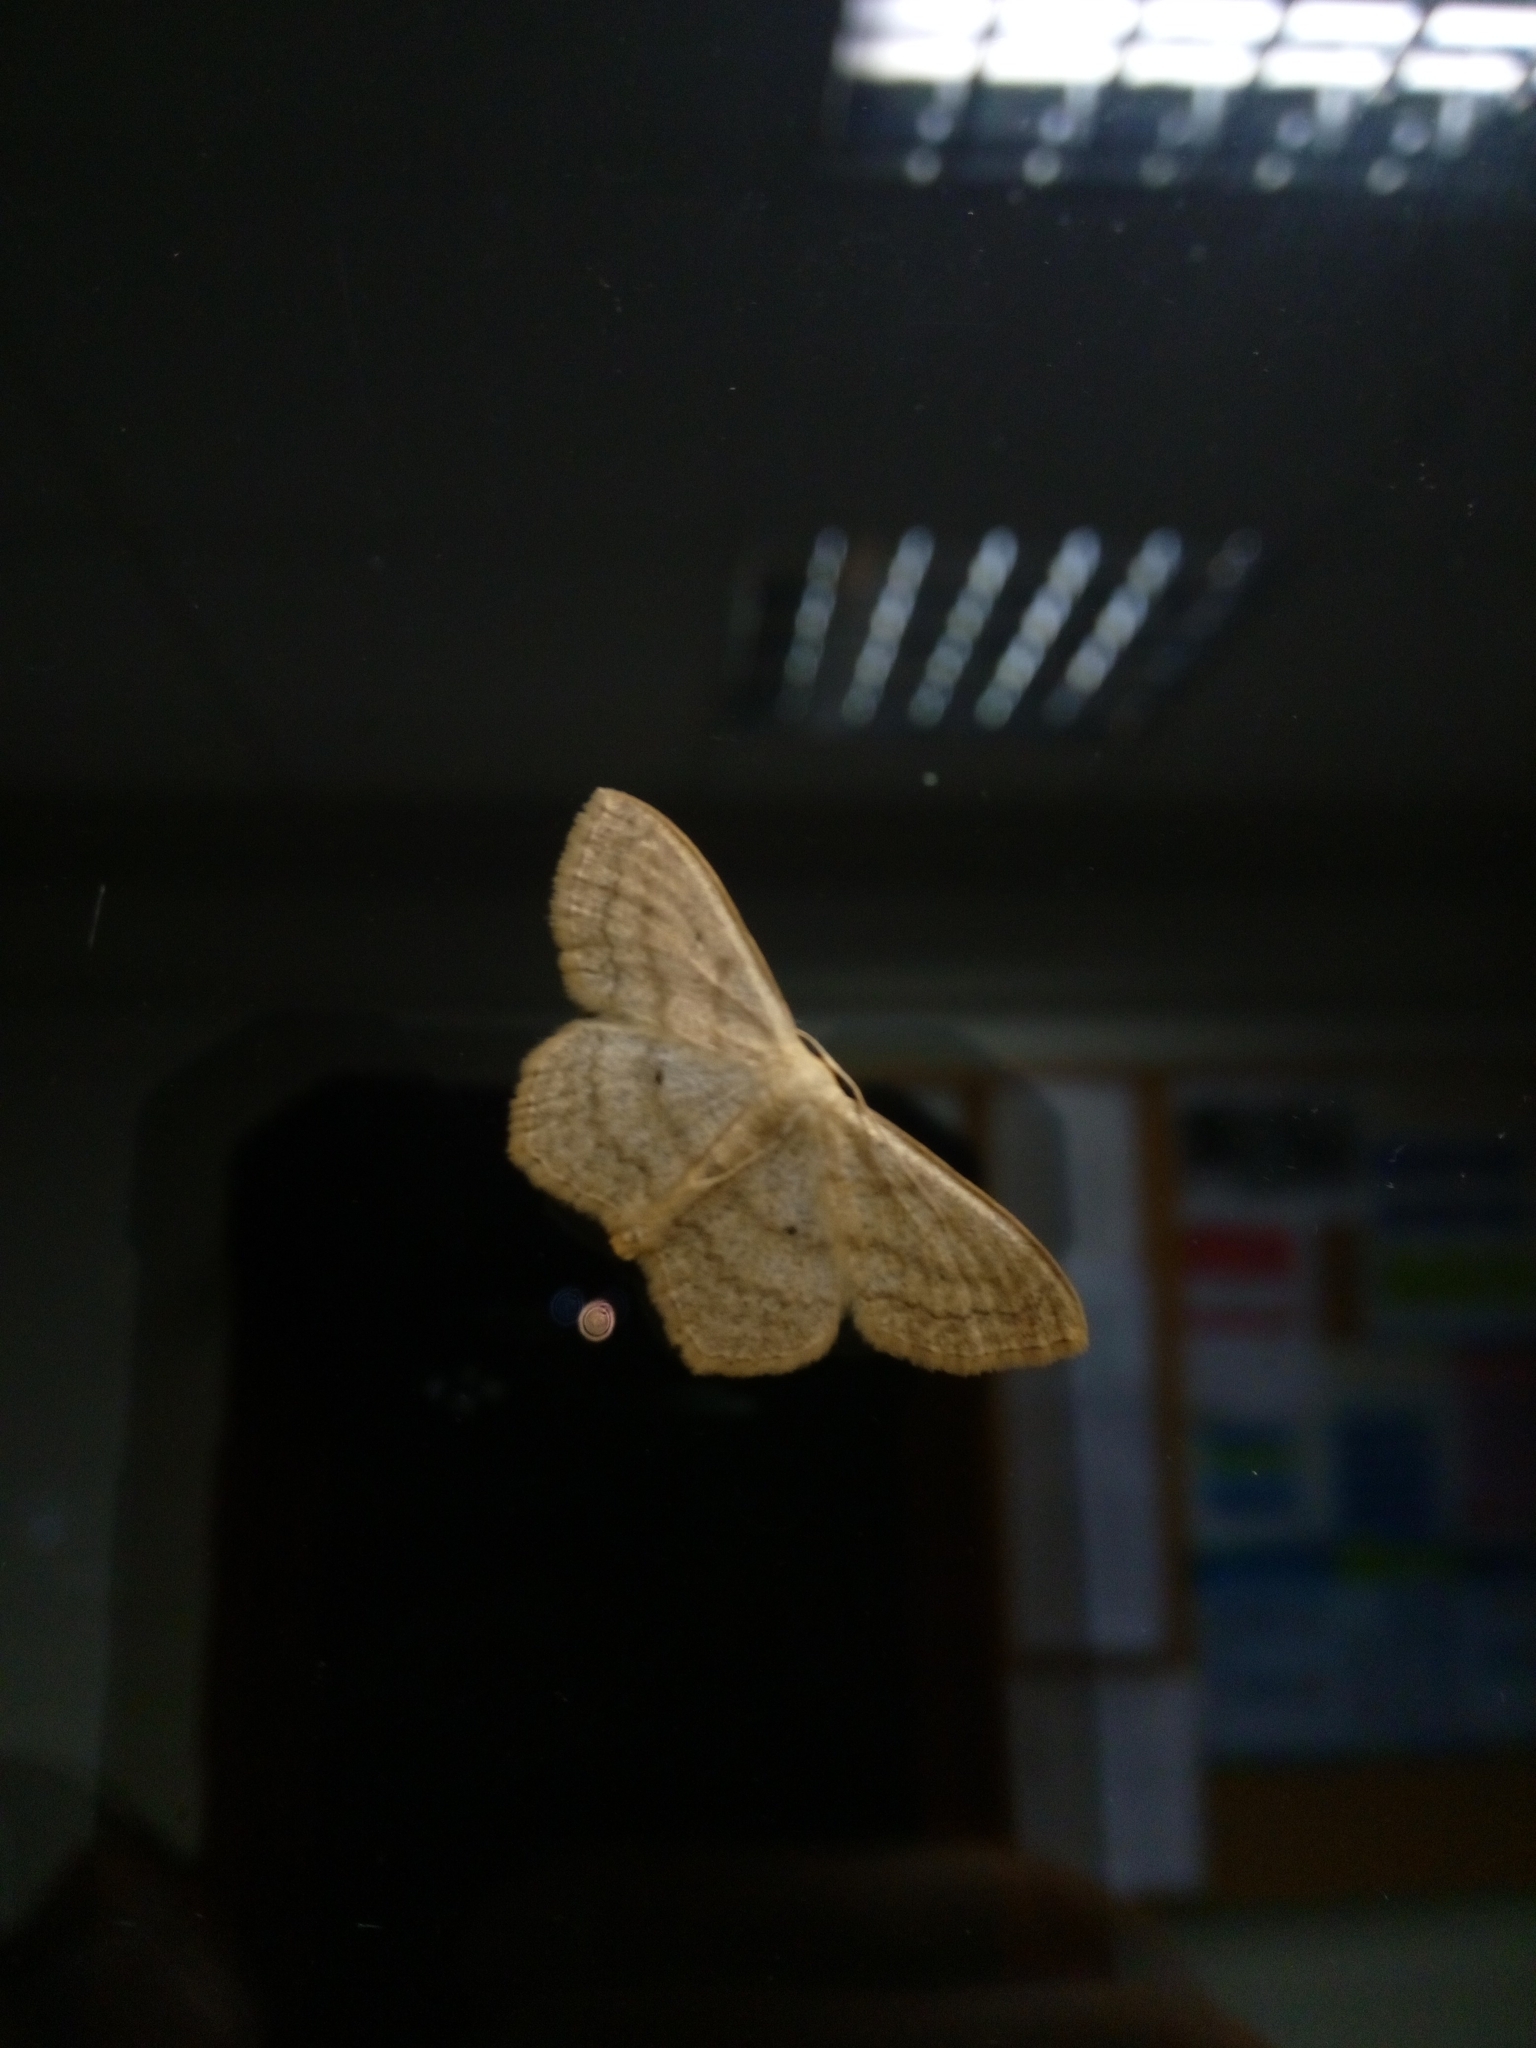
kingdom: Animalia
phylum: Arthropoda
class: Insecta
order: Lepidoptera
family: Geometridae
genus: Scopula
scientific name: Scopula nigropunctata
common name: Sub-angled wave
